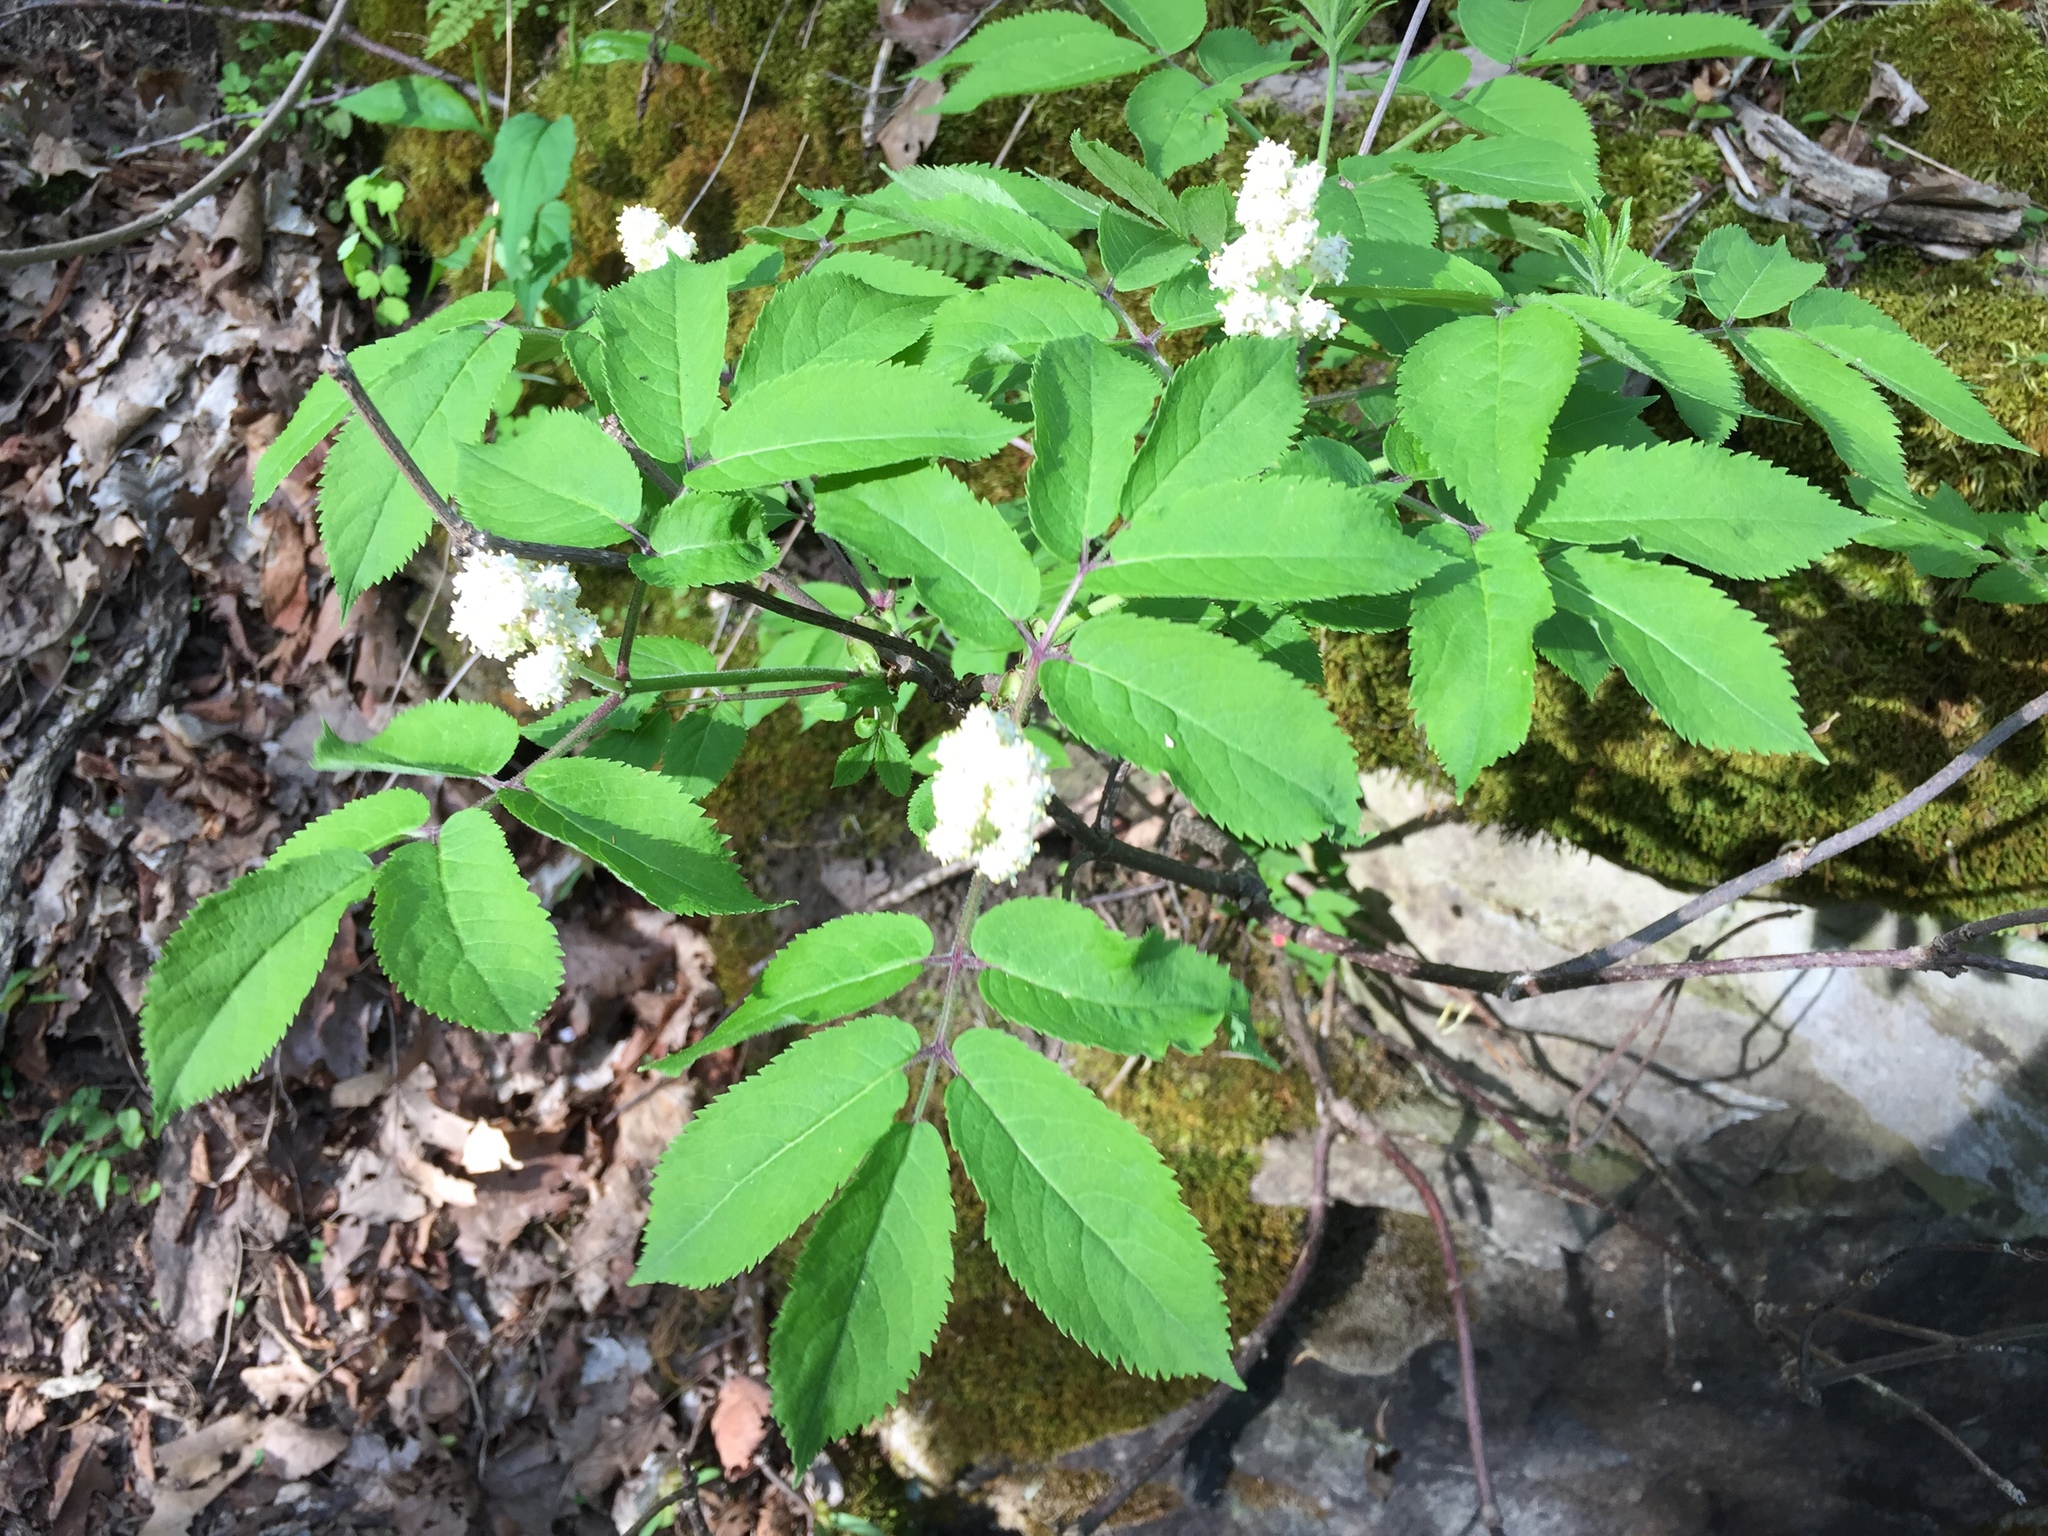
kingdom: Plantae
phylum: Tracheophyta
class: Magnoliopsida
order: Dipsacales
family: Viburnaceae
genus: Sambucus
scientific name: Sambucus racemosa
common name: Red-berried elder
